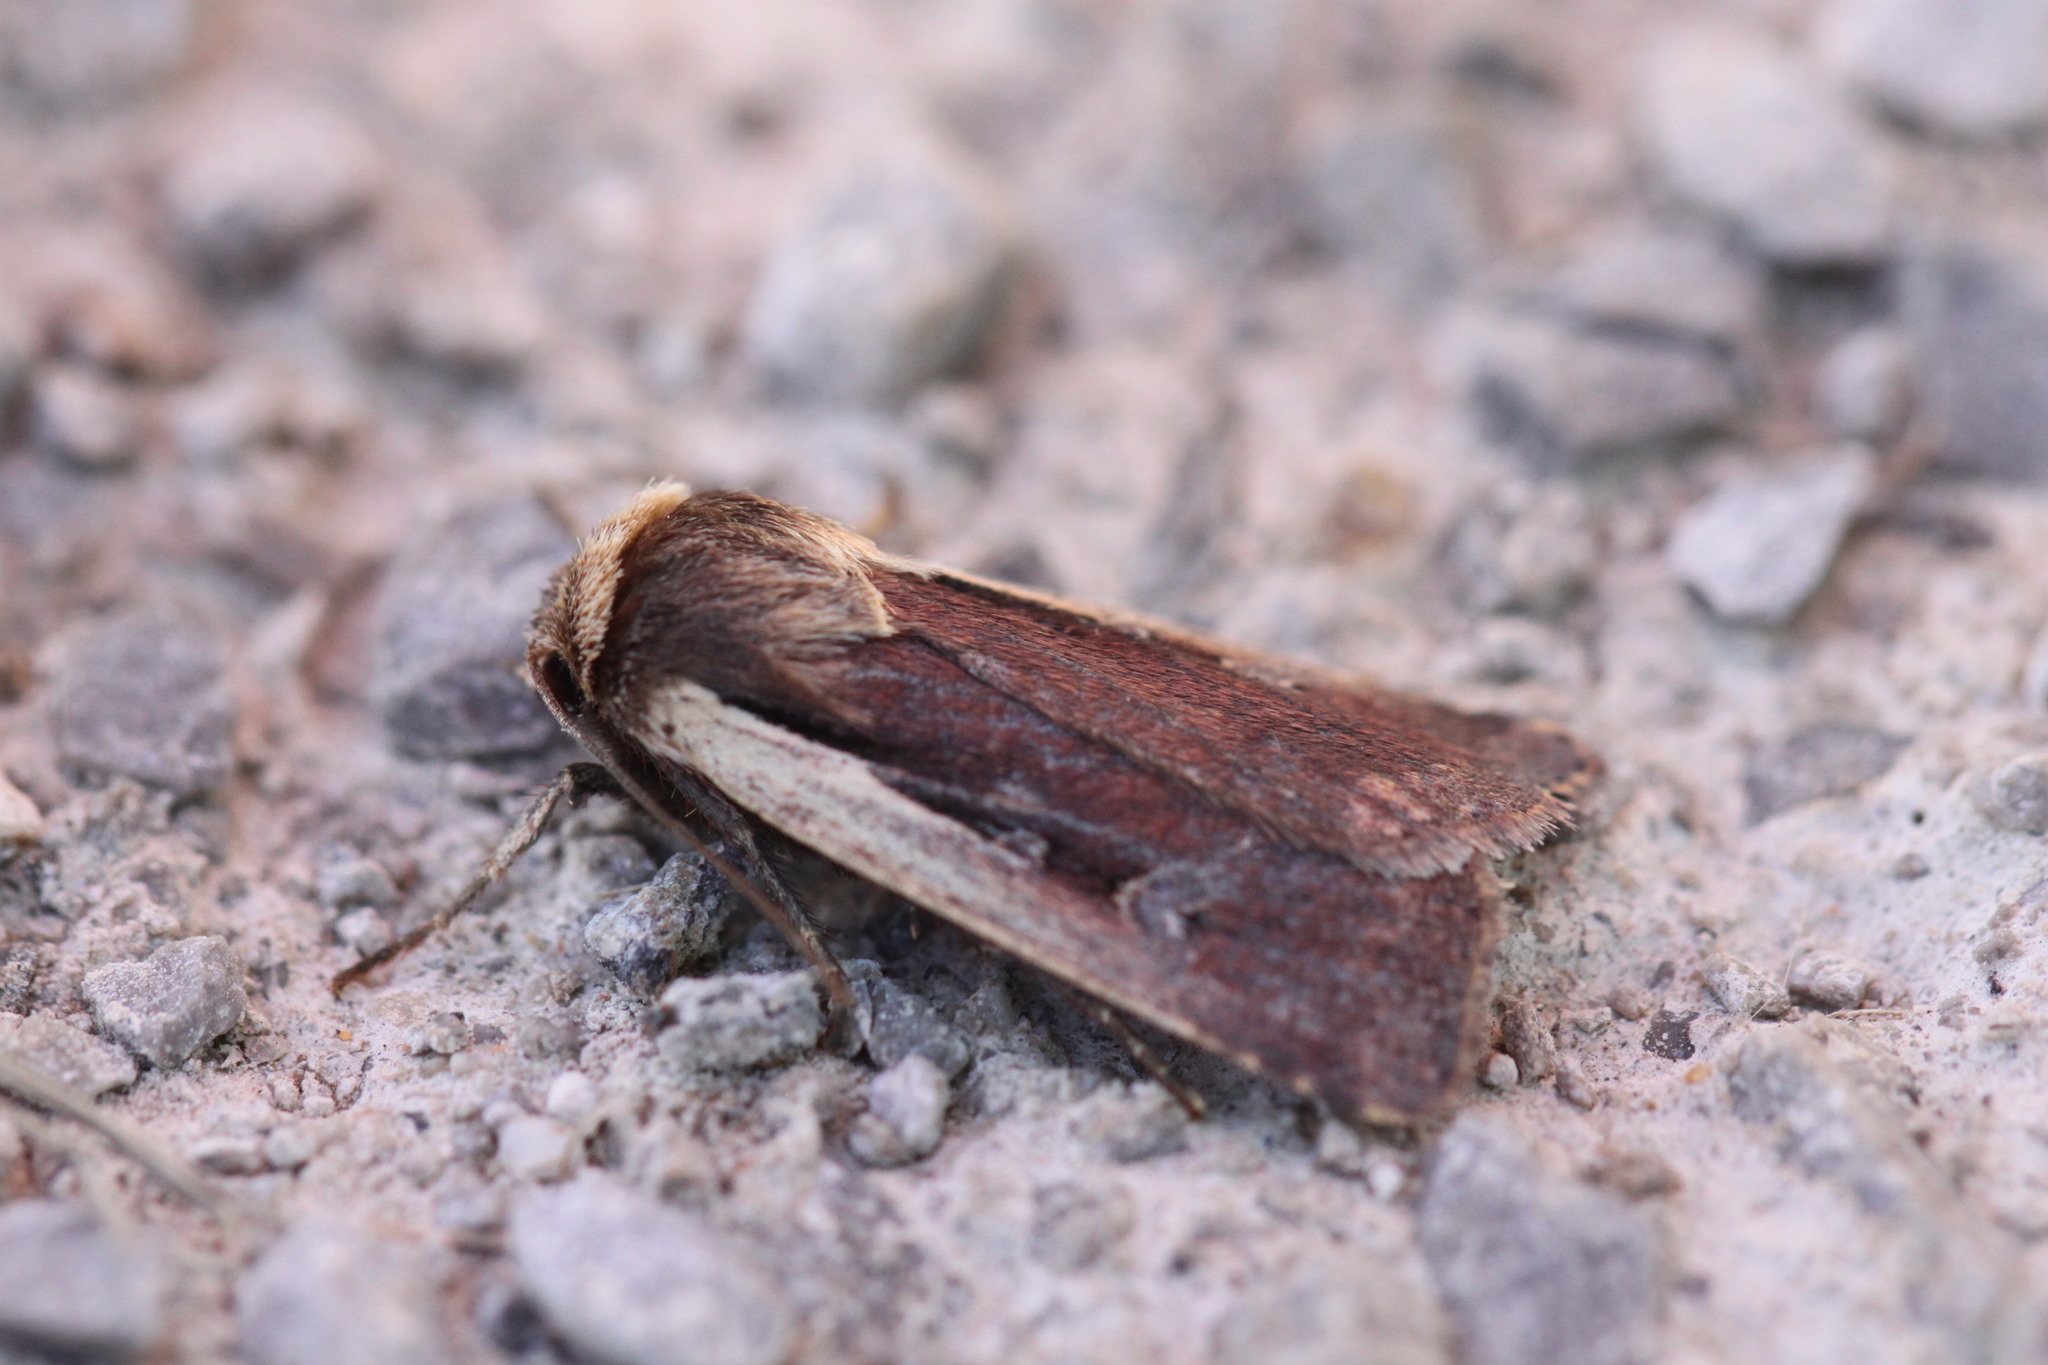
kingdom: Animalia
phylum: Arthropoda
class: Insecta
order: Lepidoptera
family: Noctuidae
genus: Ochropleura
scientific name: Ochropleura plecta
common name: Flame shoulder
